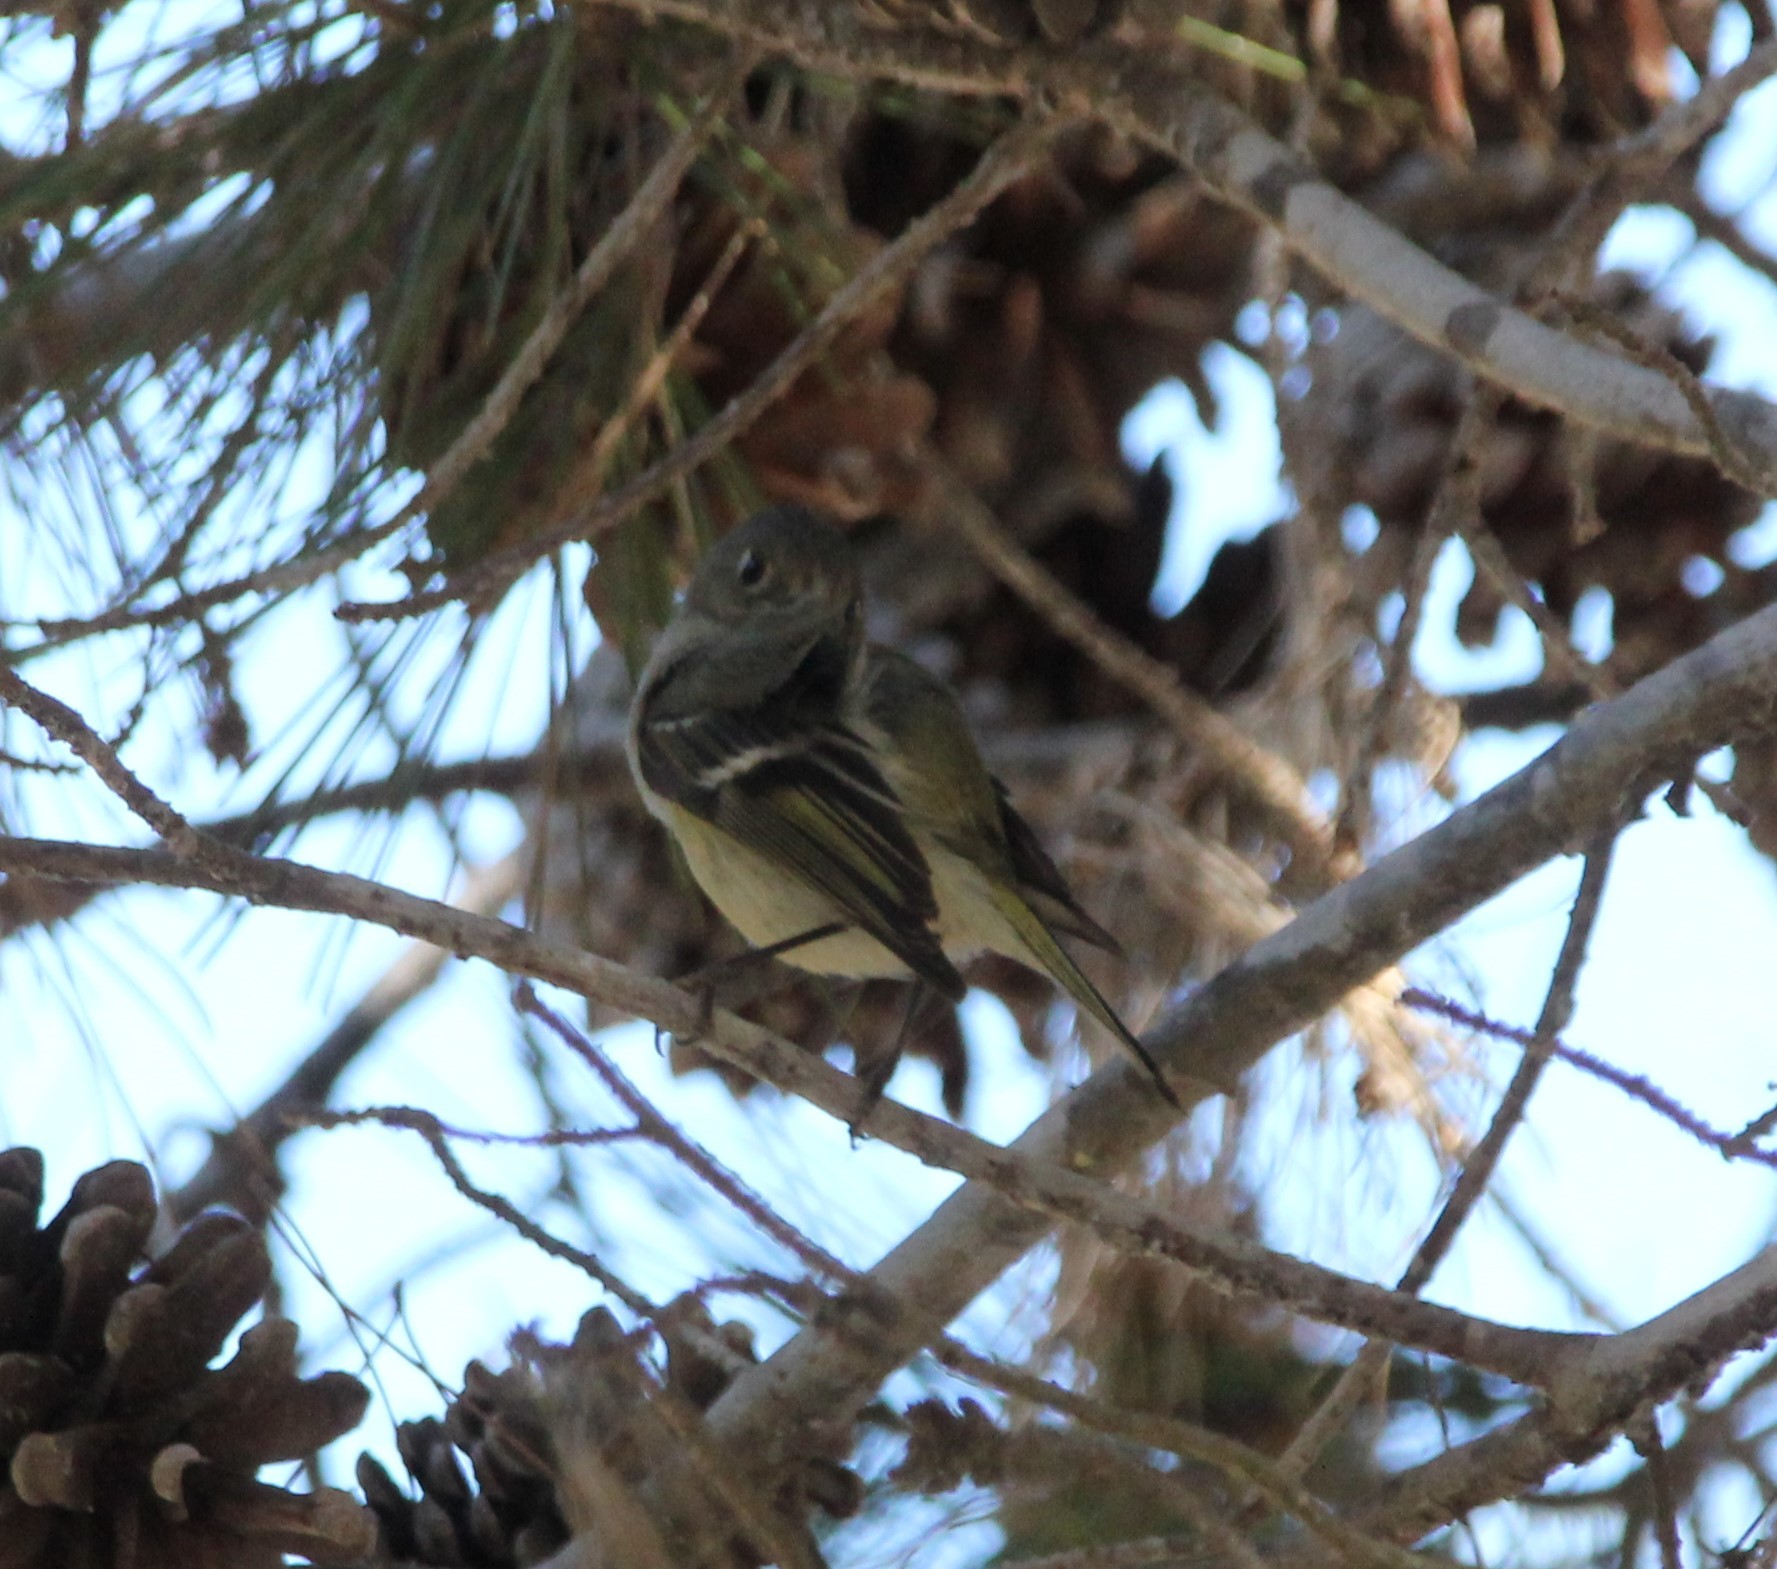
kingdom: Animalia
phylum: Chordata
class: Aves
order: Passeriformes
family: Regulidae
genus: Regulus
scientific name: Regulus calendula
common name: Ruby-crowned kinglet
